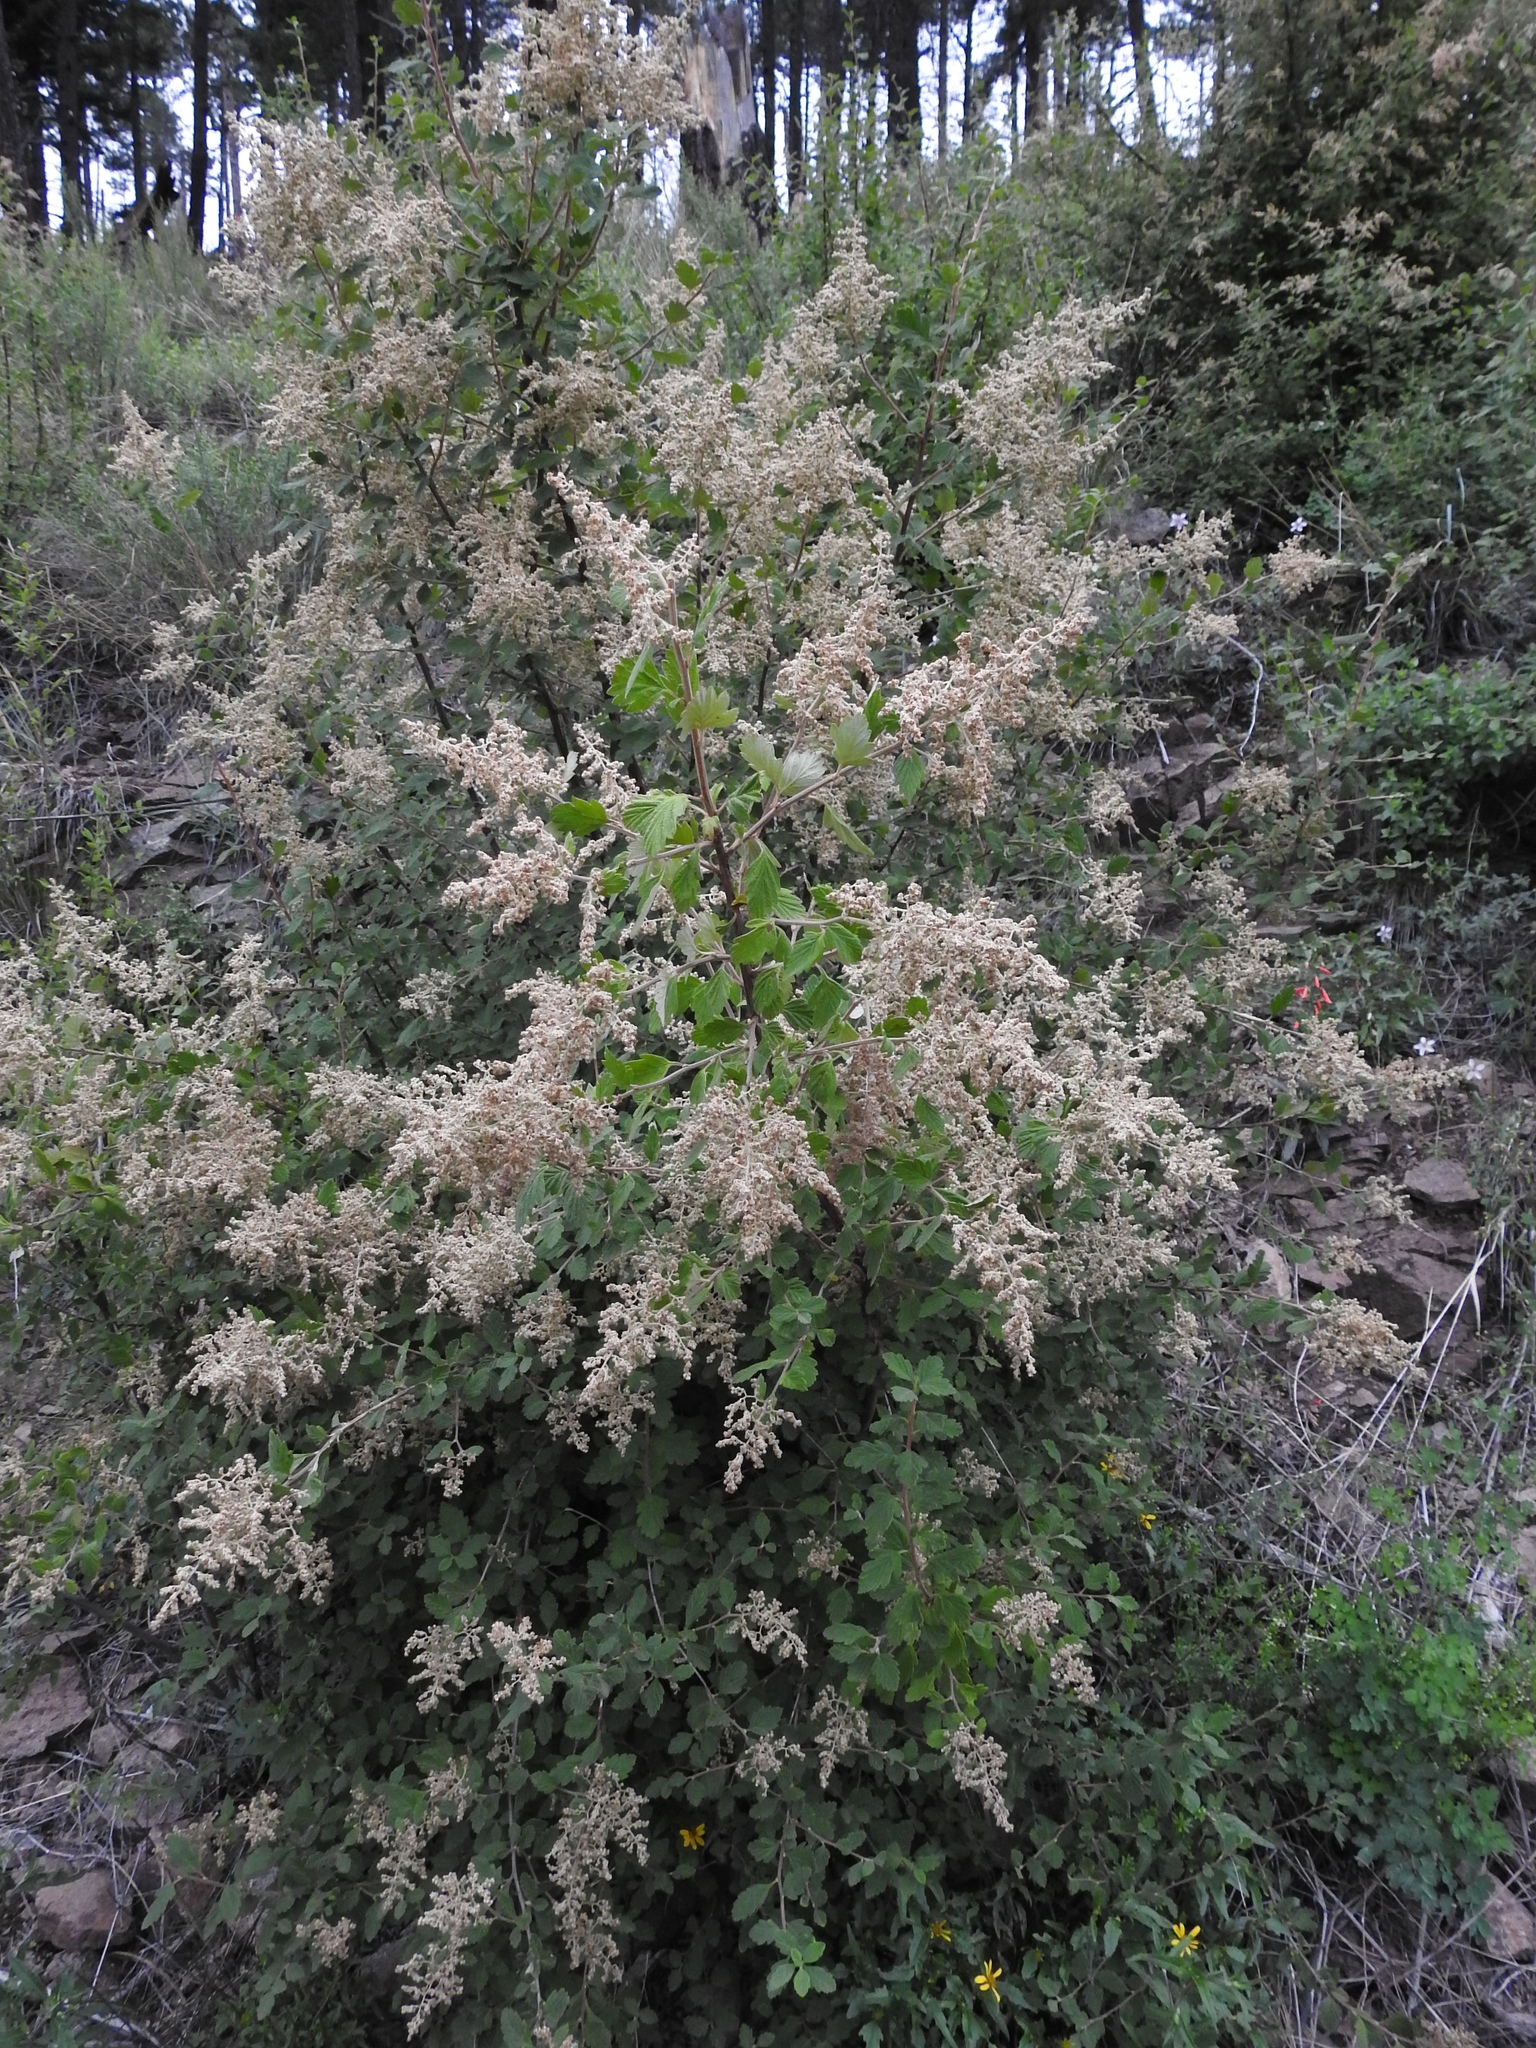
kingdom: Plantae
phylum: Tracheophyta
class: Magnoliopsida
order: Rosales
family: Rosaceae
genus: Holodiscus
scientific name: Holodiscus discolor
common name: Oceanspray
